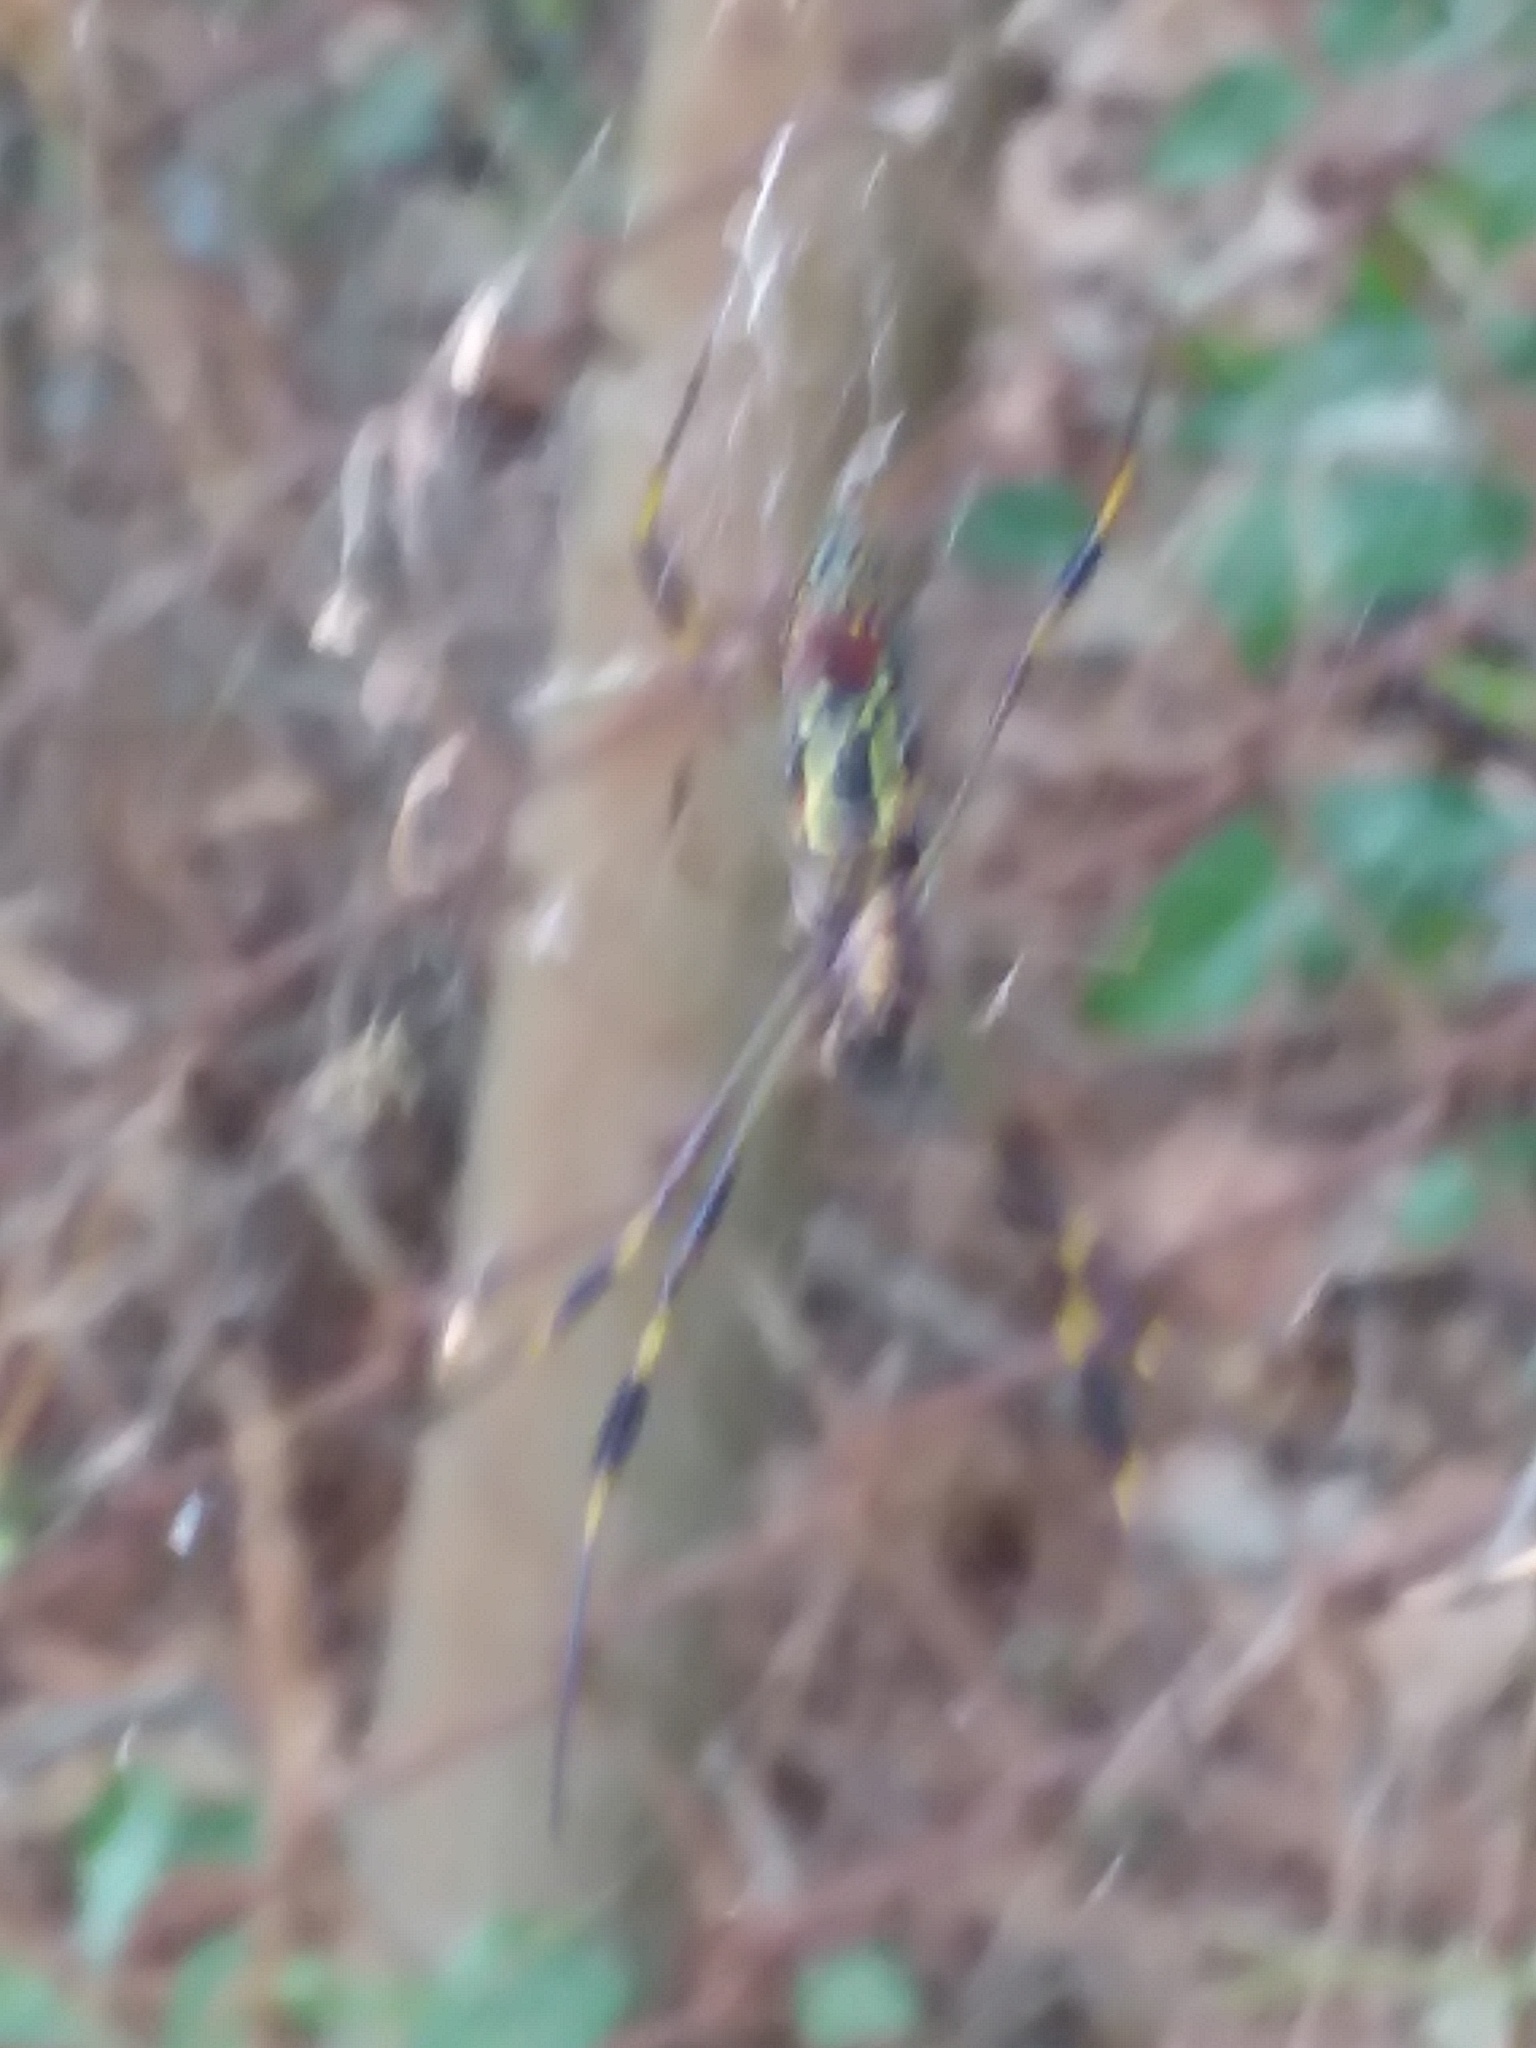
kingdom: Animalia
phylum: Arthropoda
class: Arachnida
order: Araneae
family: Araneidae
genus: Trichonephila
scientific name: Trichonephila clavipes
